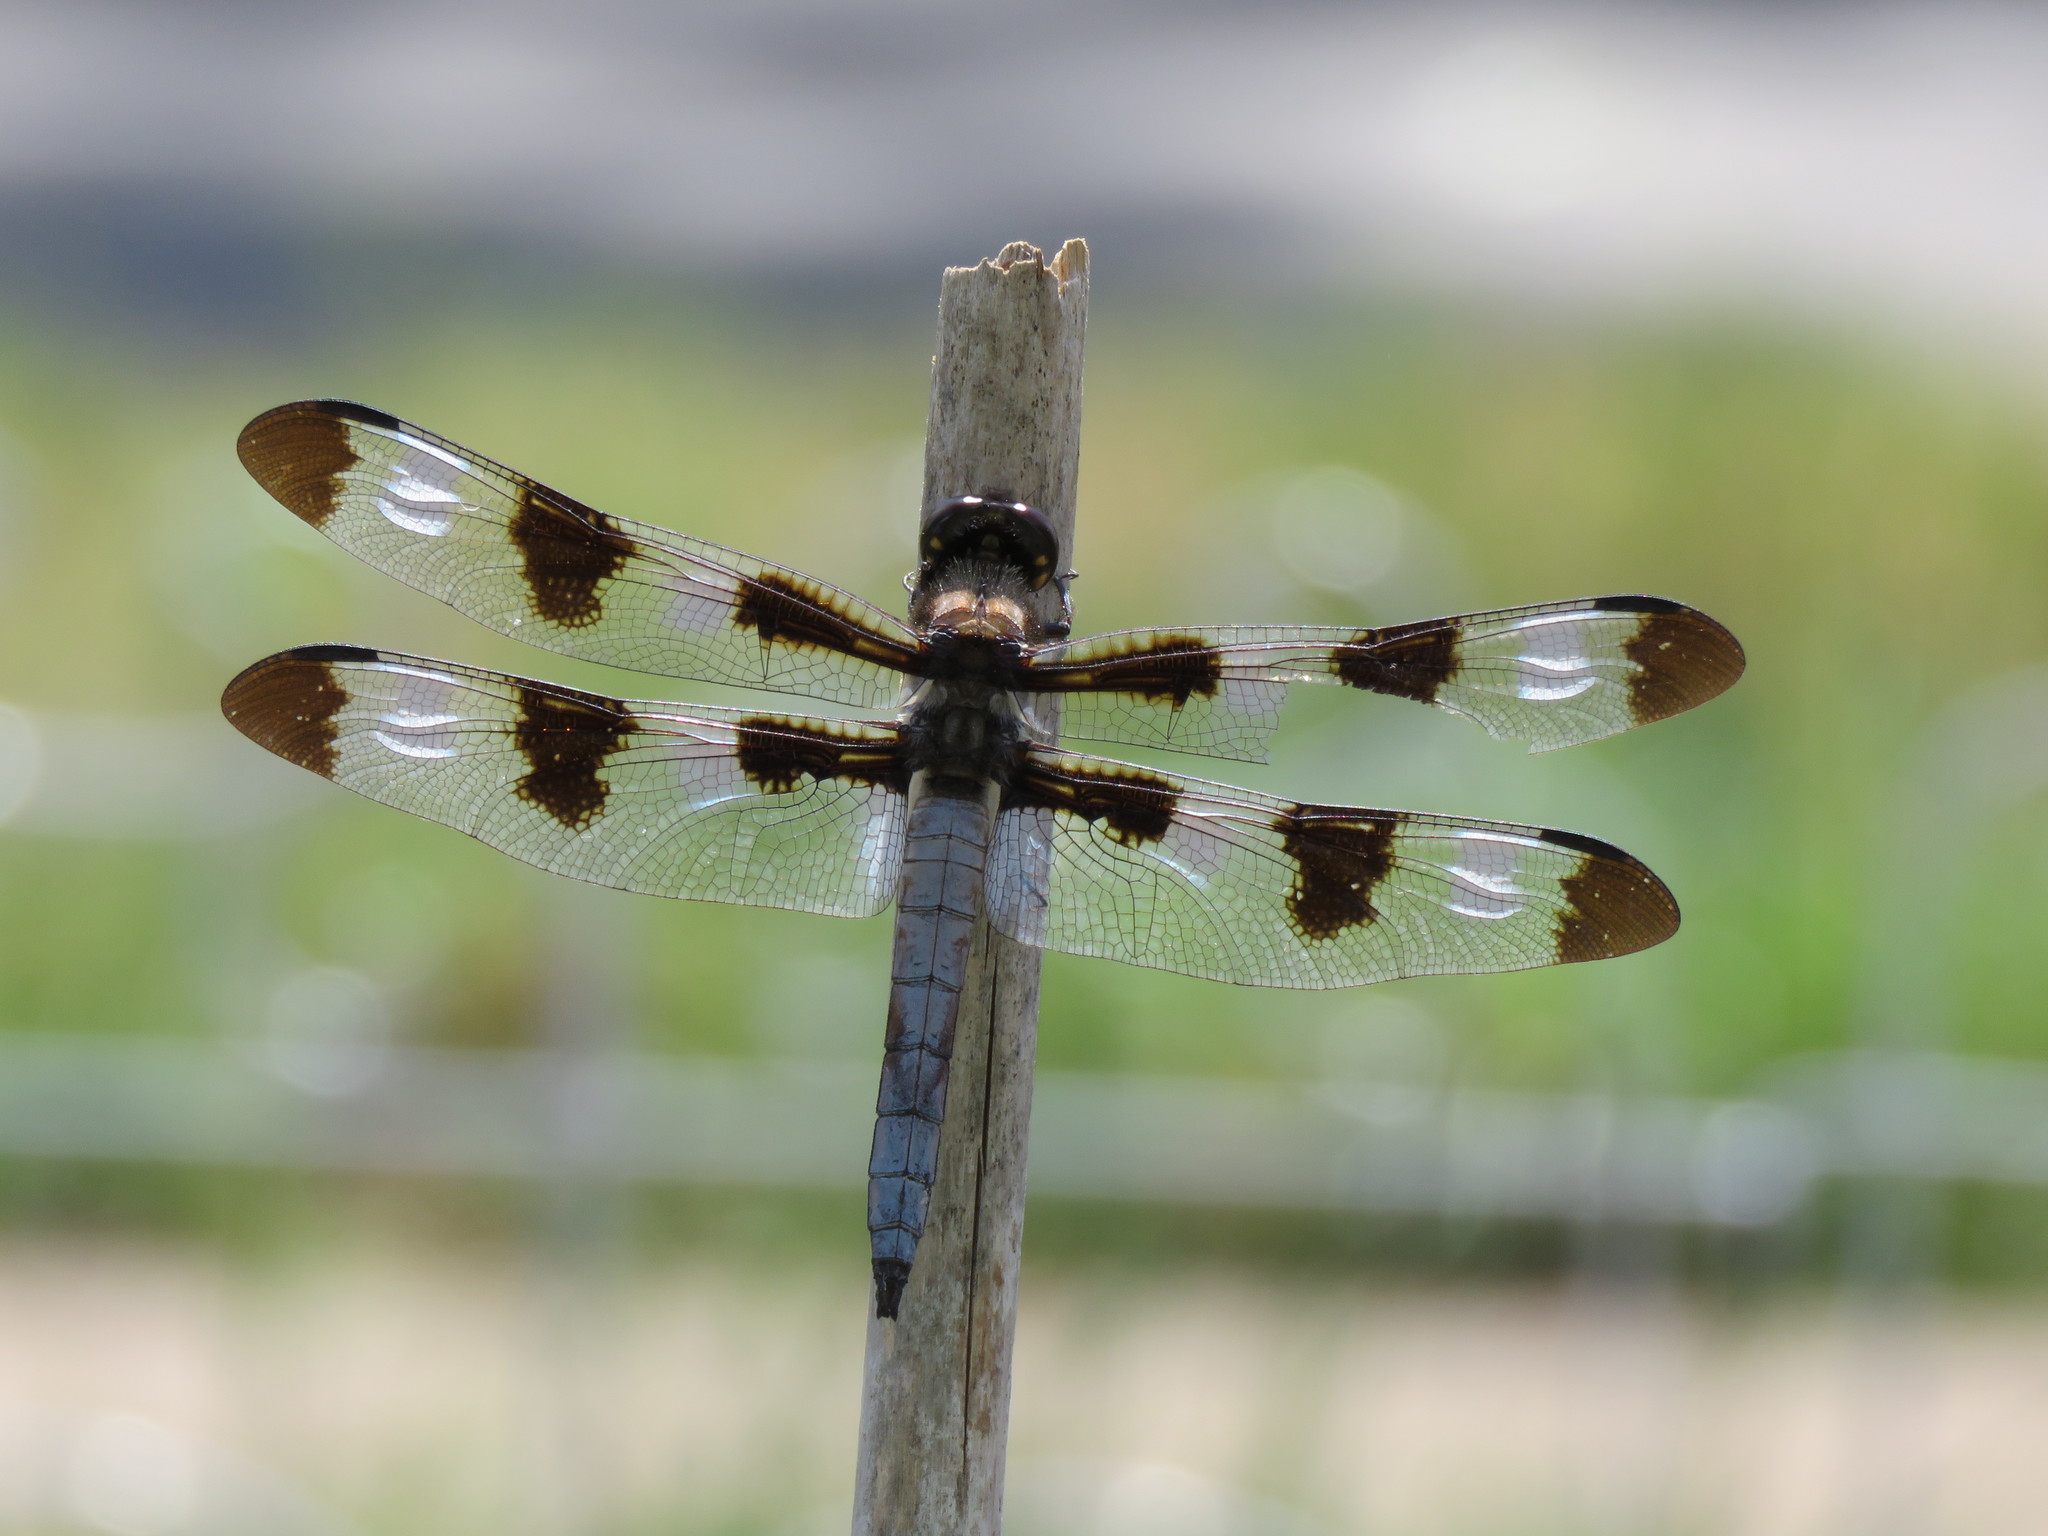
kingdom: Animalia
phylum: Arthropoda
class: Insecta
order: Odonata
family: Libellulidae
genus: Libellula
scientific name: Libellula pulchella
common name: Twelve-spotted skimmer
